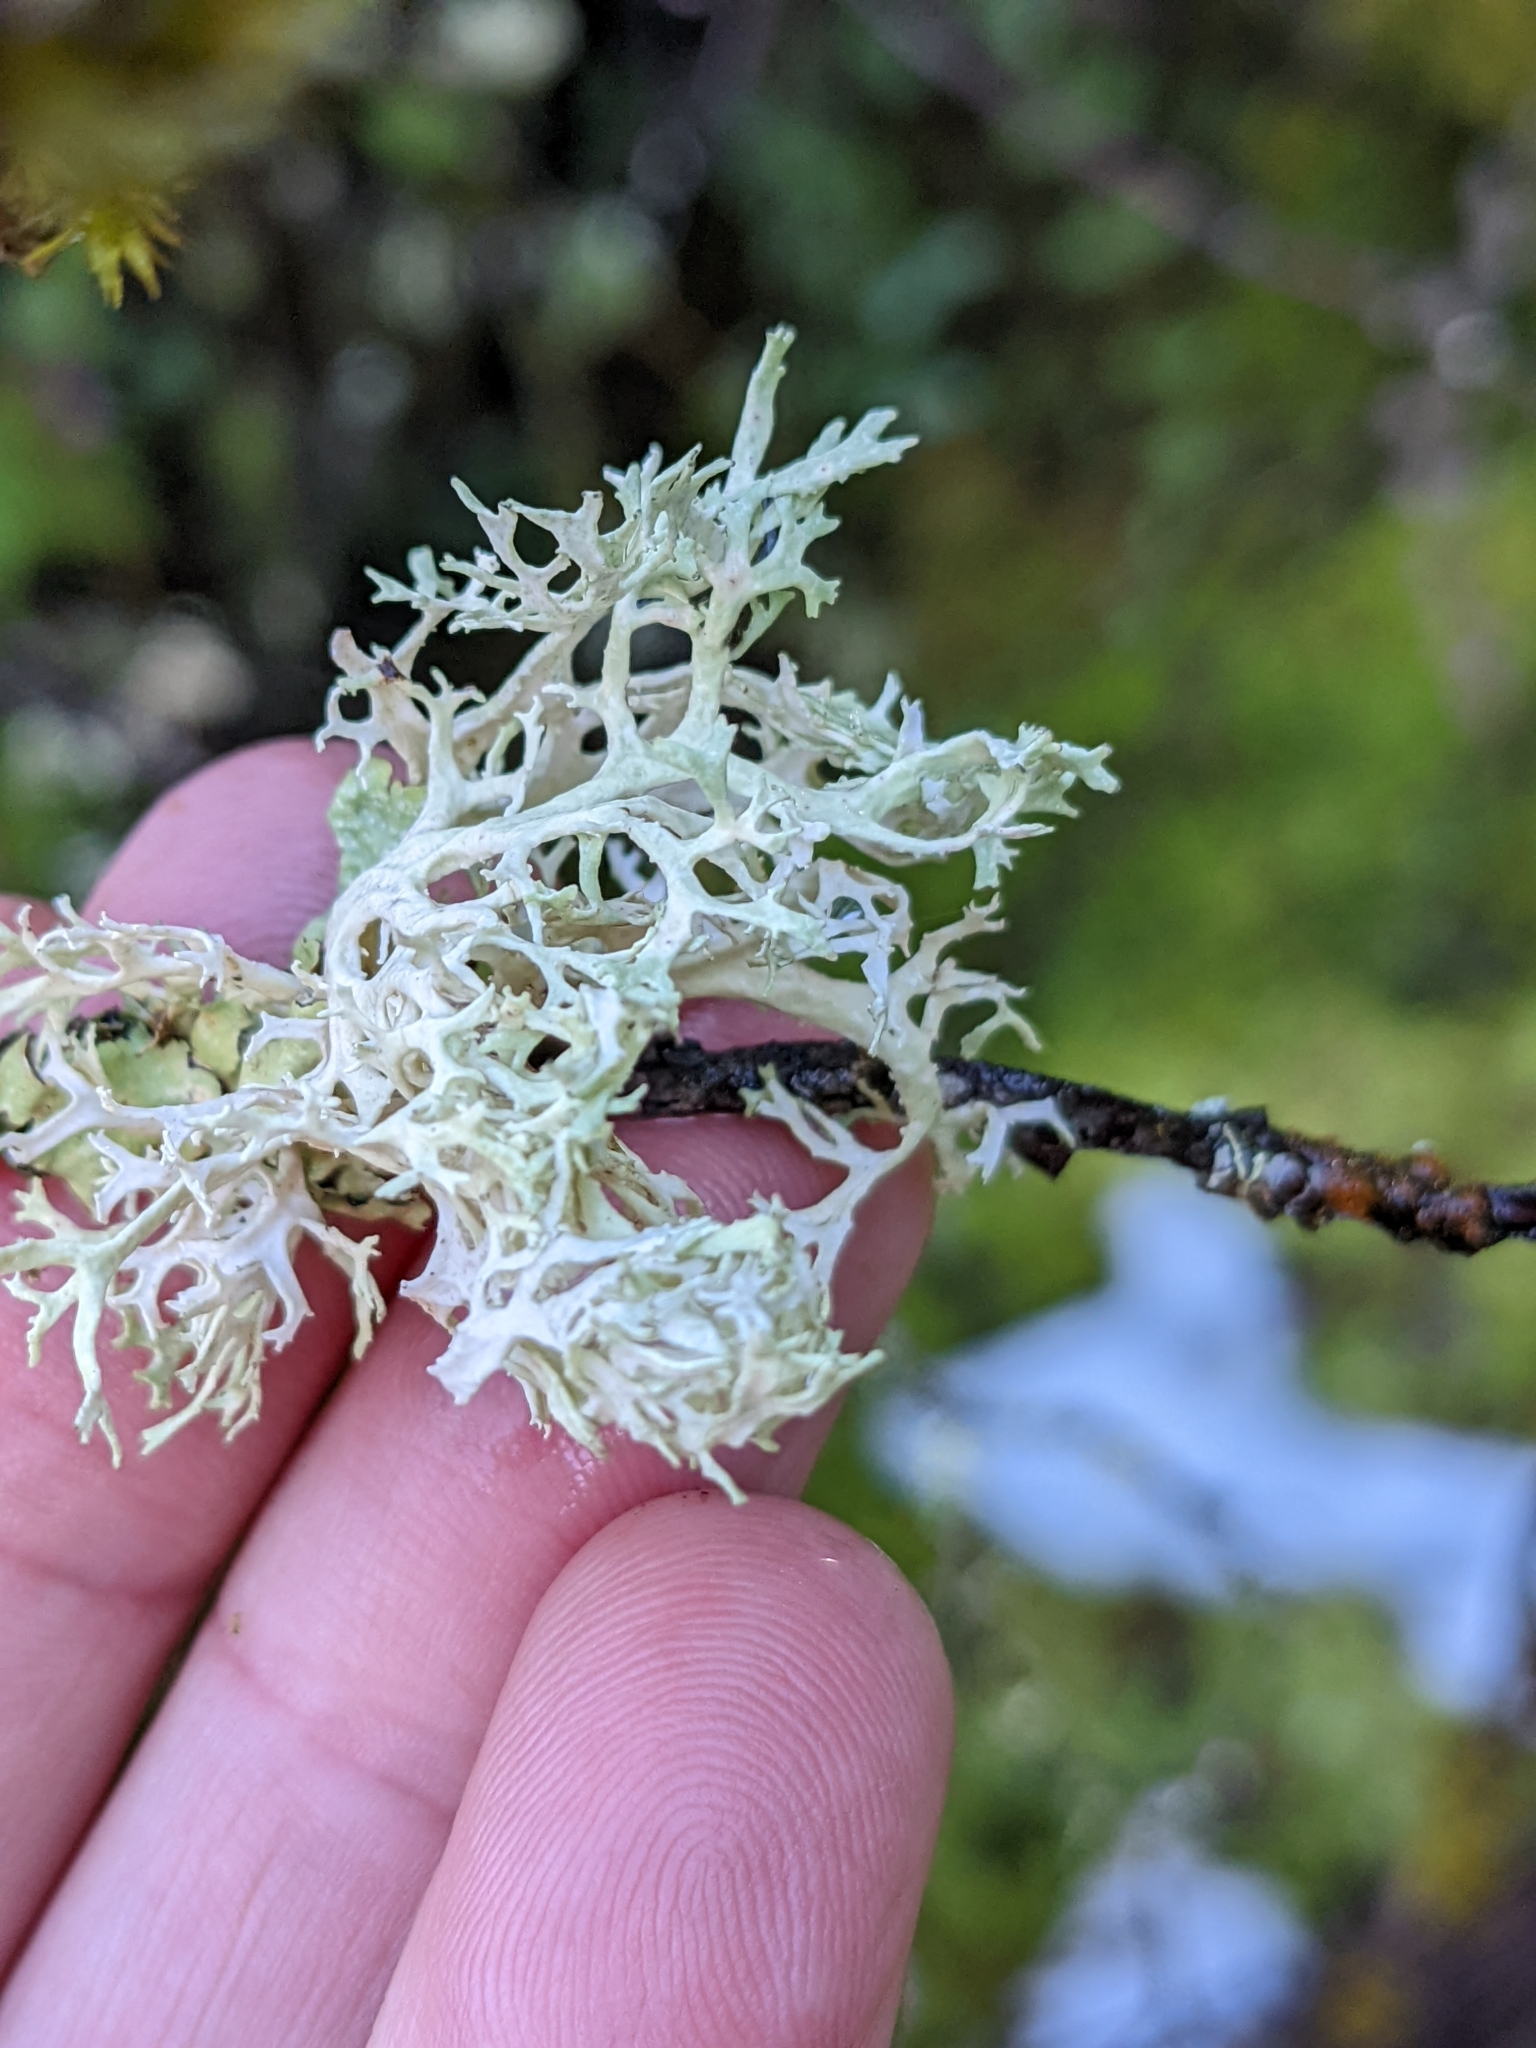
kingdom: Fungi
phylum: Ascomycota
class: Lecanoromycetes
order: Lecanorales
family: Parmeliaceae
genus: Evernia
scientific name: Evernia prunastri
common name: Oak moss
